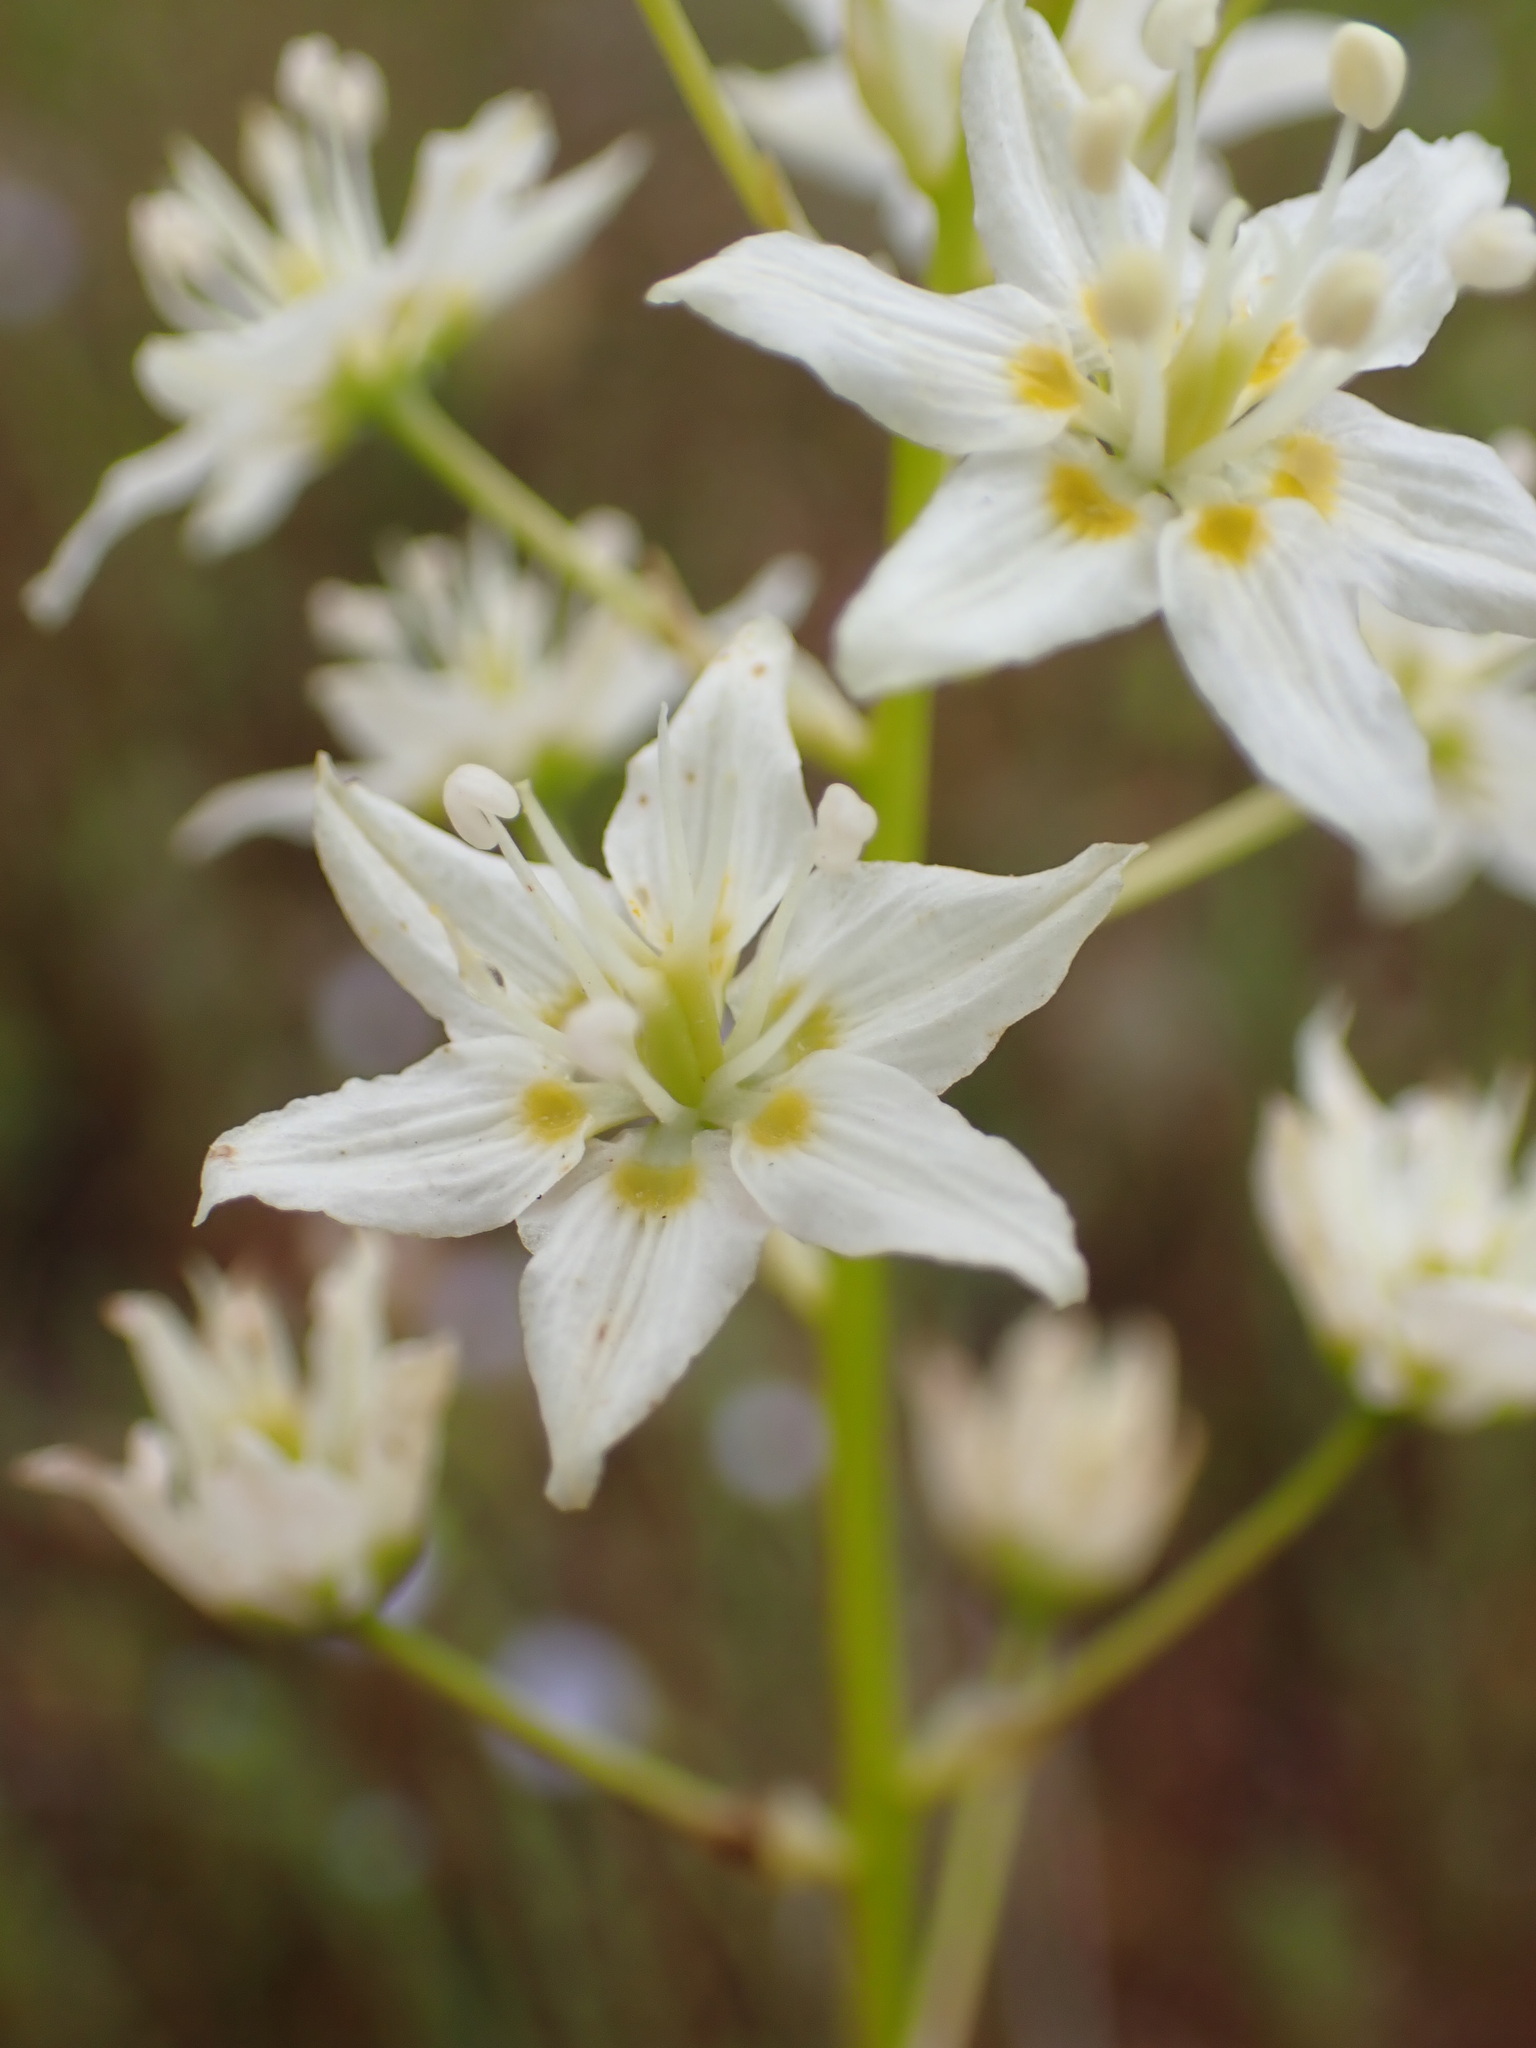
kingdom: Plantae
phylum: Tracheophyta
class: Liliopsida
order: Liliales
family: Melanthiaceae
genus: Toxicoscordion
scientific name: Toxicoscordion fremontii
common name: Fremont's death camas
